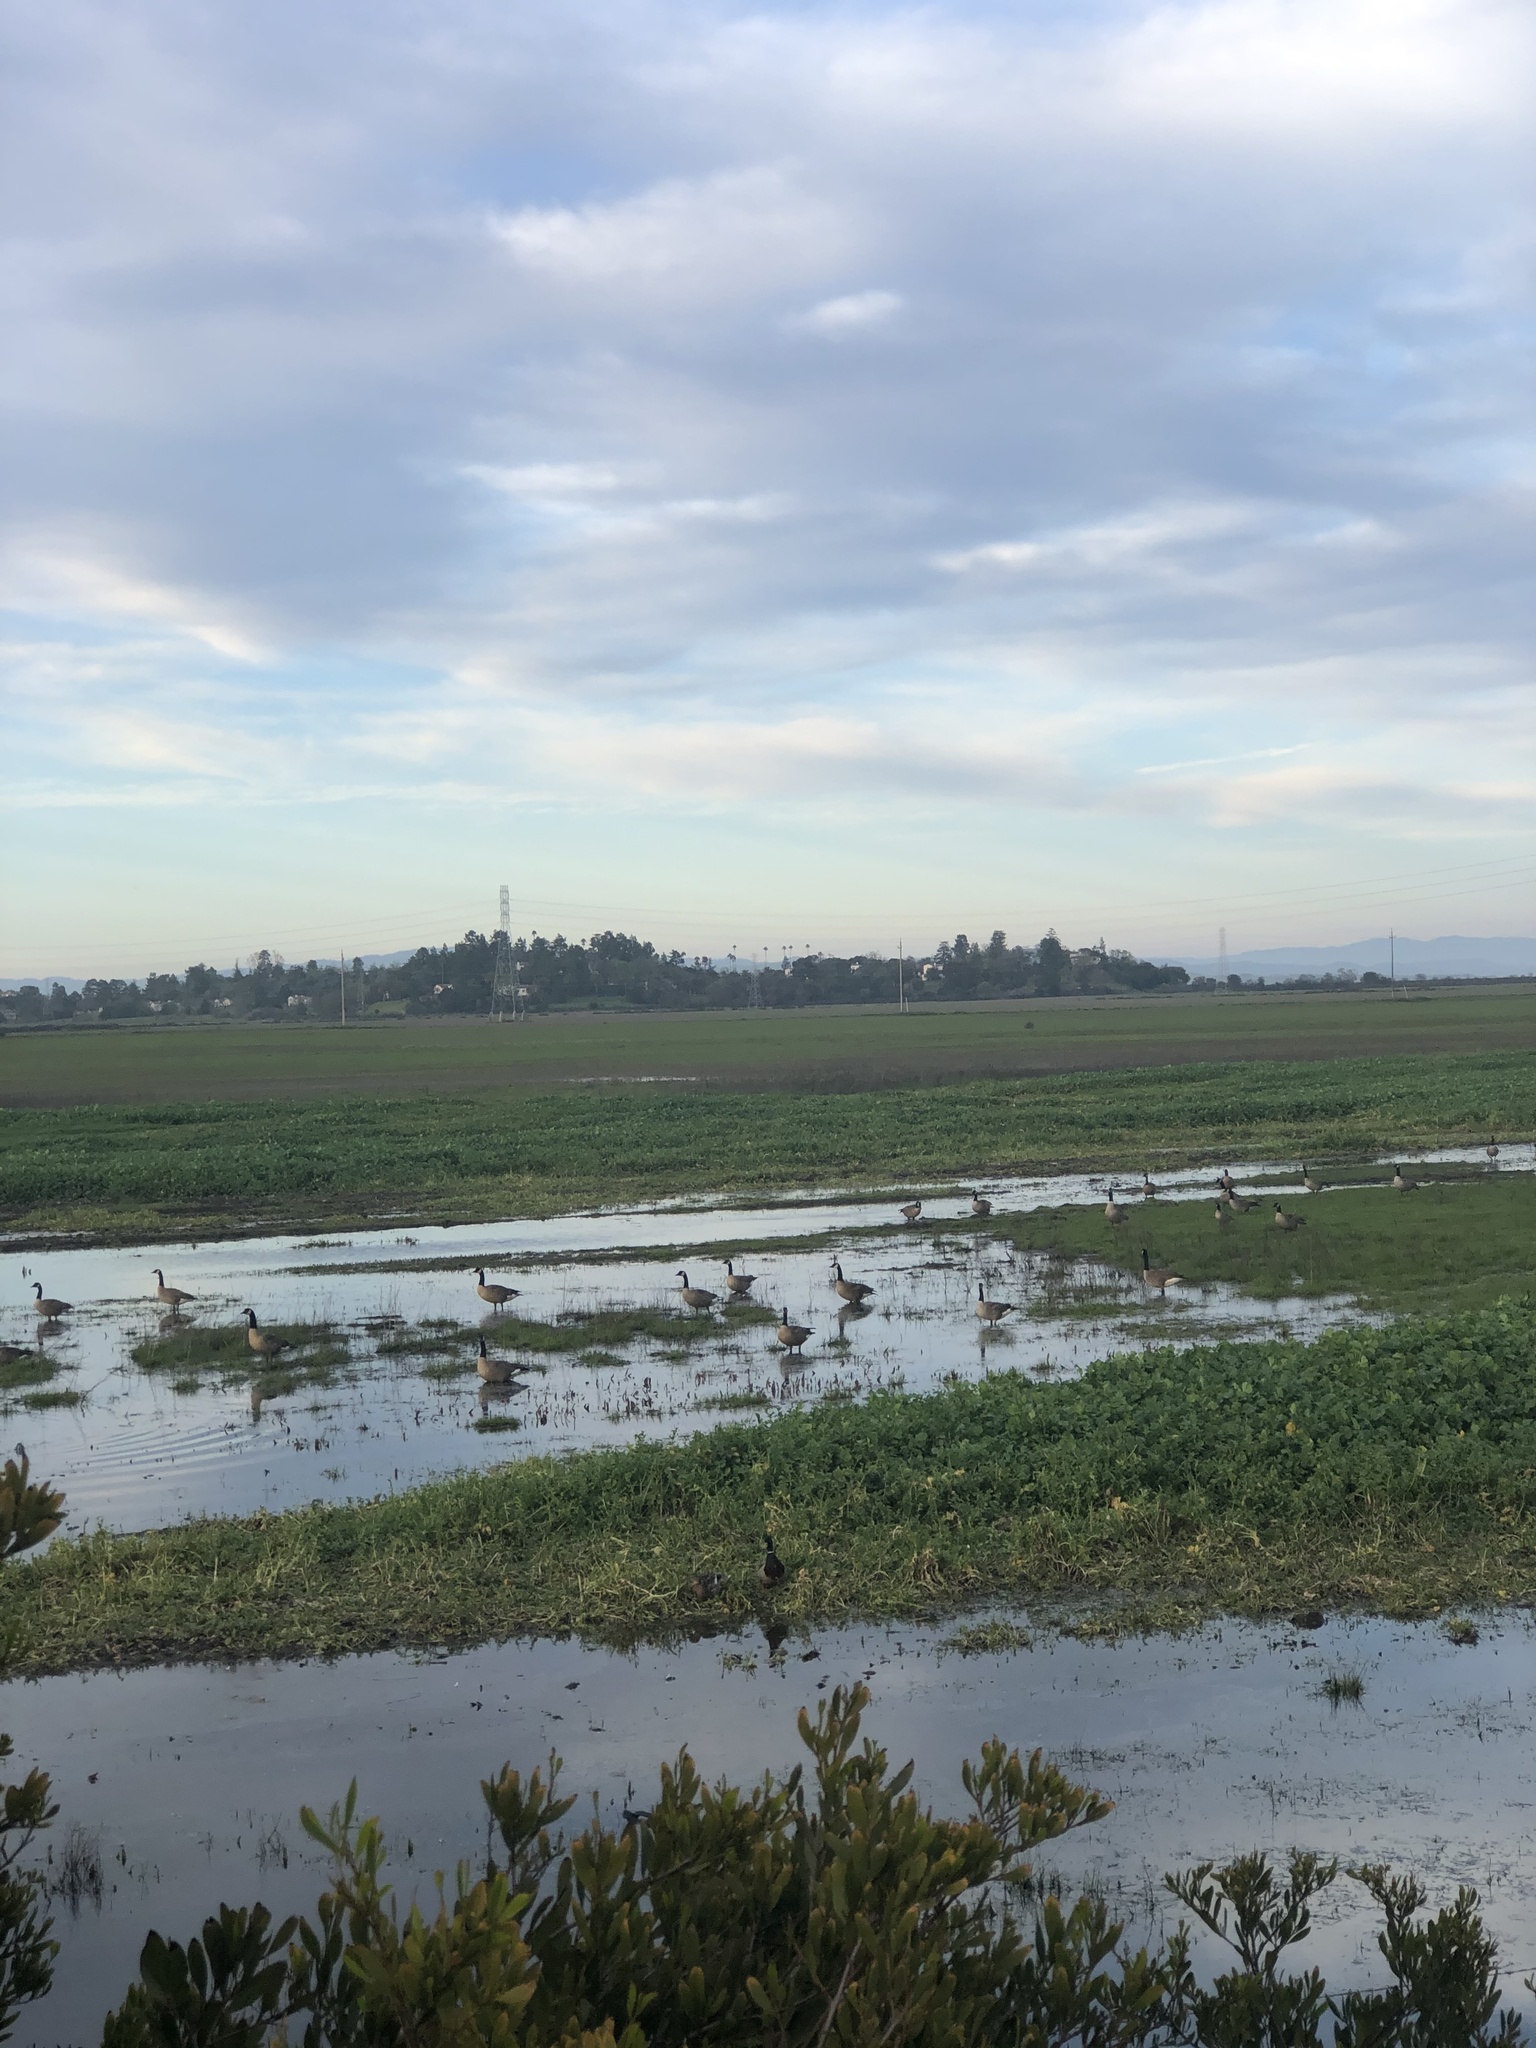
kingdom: Animalia
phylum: Chordata
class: Aves
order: Anseriformes
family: Anatidae
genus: Branta
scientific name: Branta canadensis
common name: Canada goose
